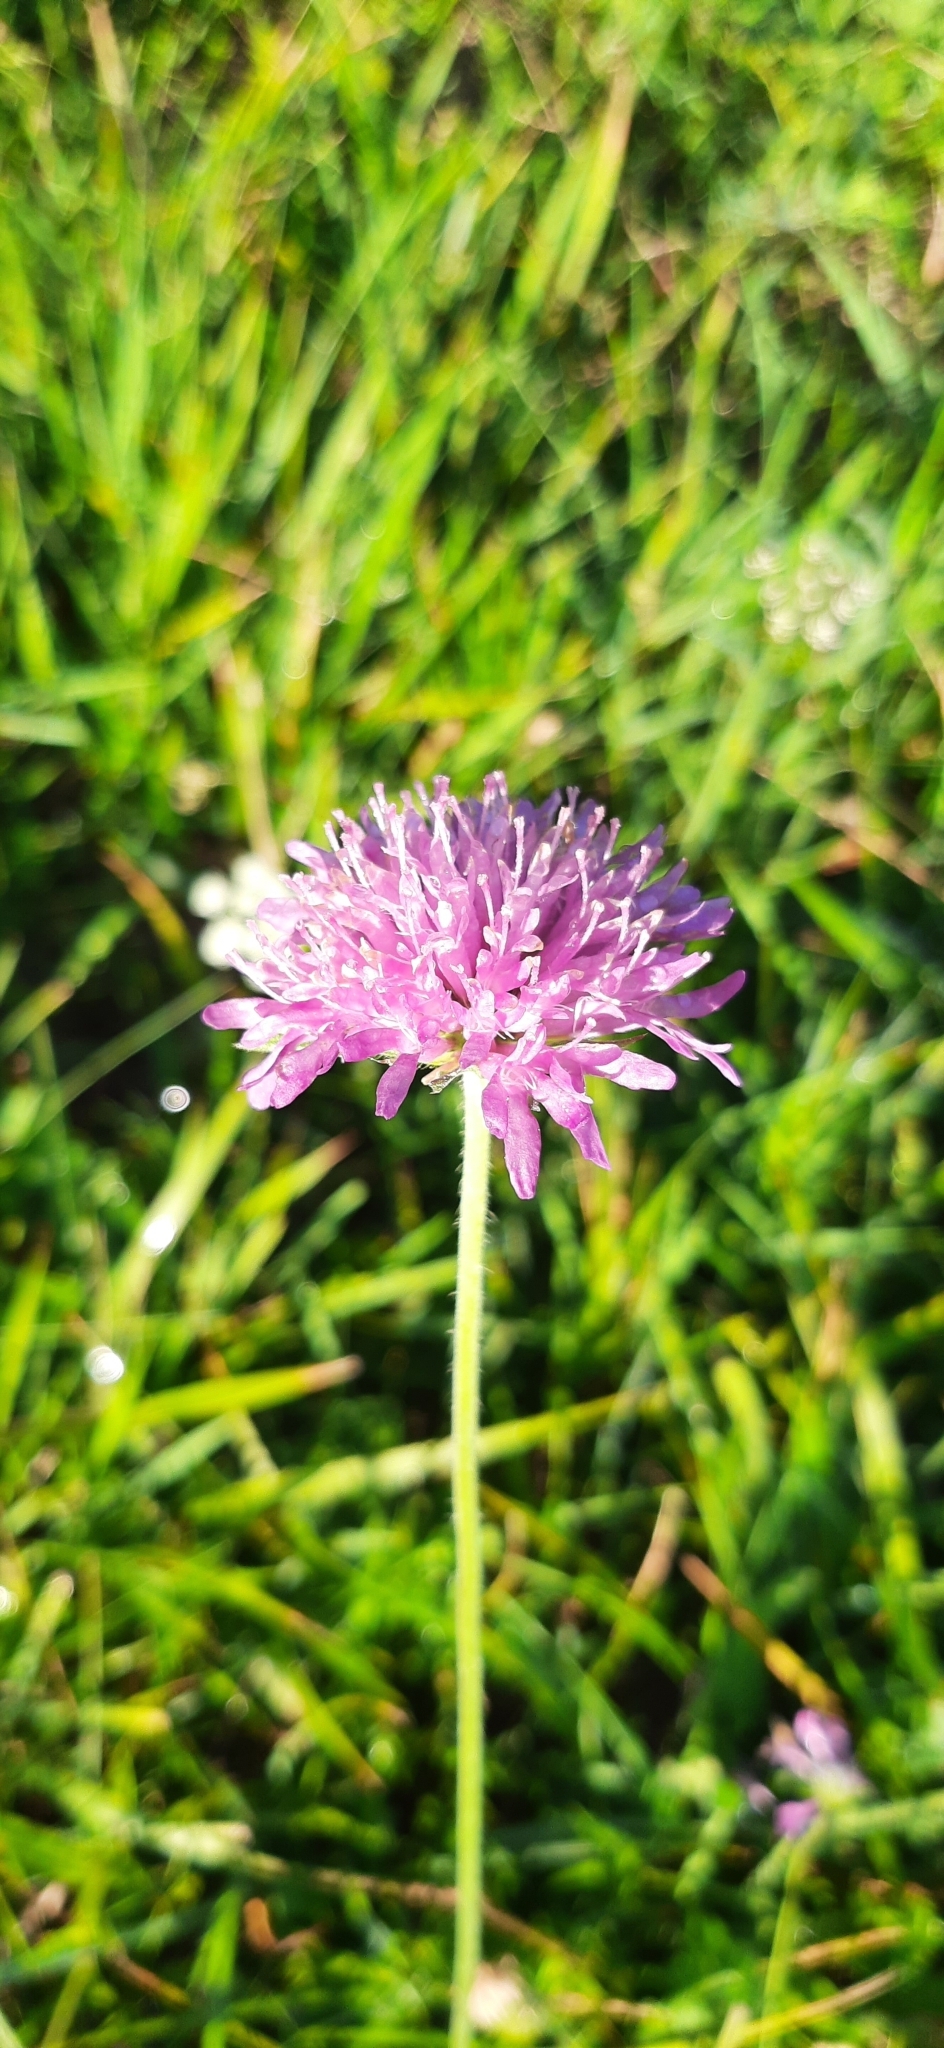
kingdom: Plantae
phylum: Tracheophyta
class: Magnoliopsida
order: Dipsacales
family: Caprifoliaceae
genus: Knautia
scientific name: Knautia drymeia
